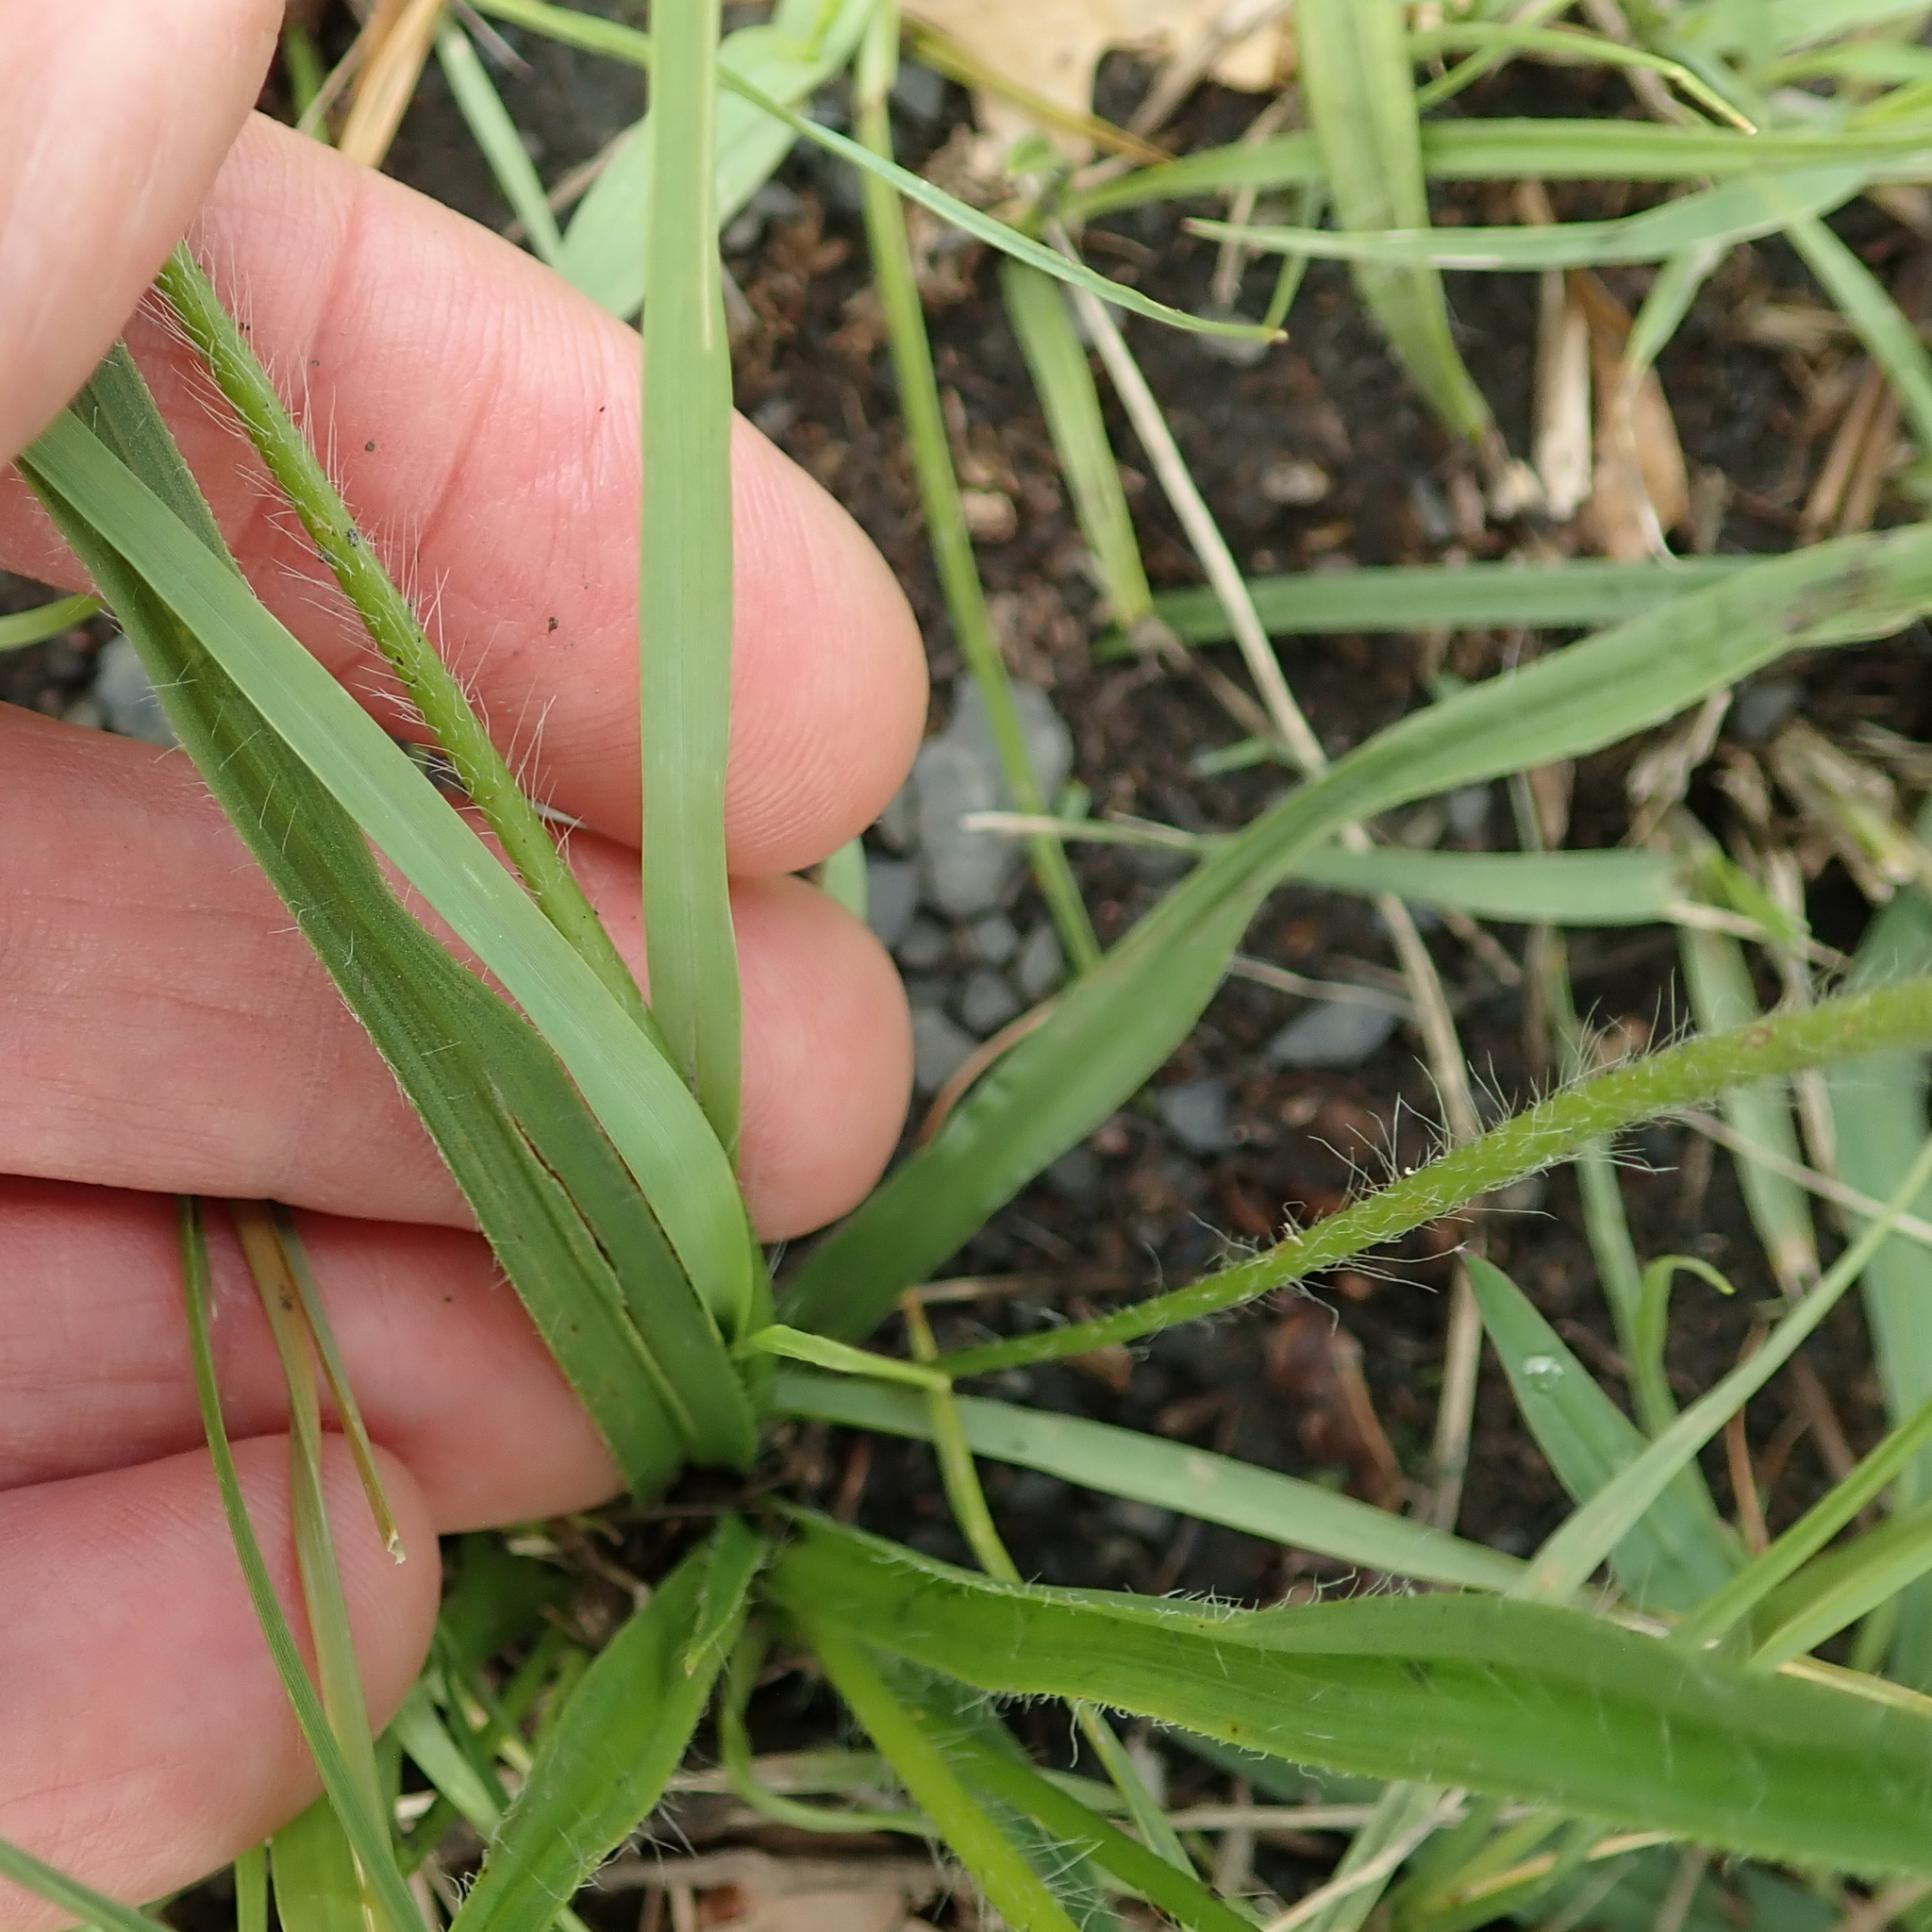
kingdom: Plantae
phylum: Tracheophyta
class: Liliopsida
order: Asparagales
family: Hypoxidaceae
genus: Hypoxis
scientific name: Hypoxis argentea
